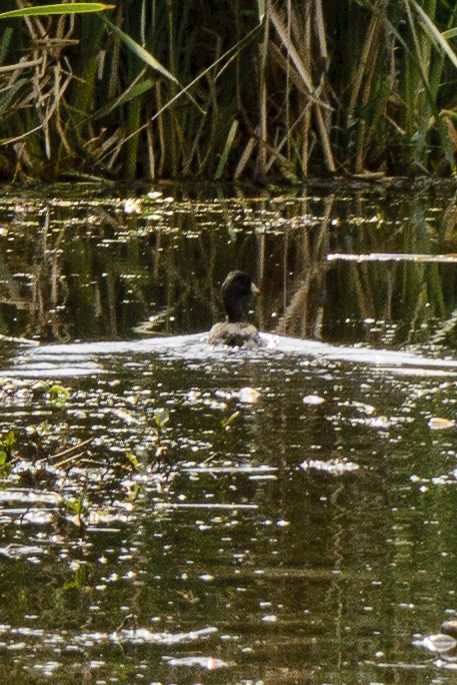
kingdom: Animalia
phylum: Chordata
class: Aves
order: Gruiformes
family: Rallidae
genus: Fulica
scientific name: Fulica americana
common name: American coot
